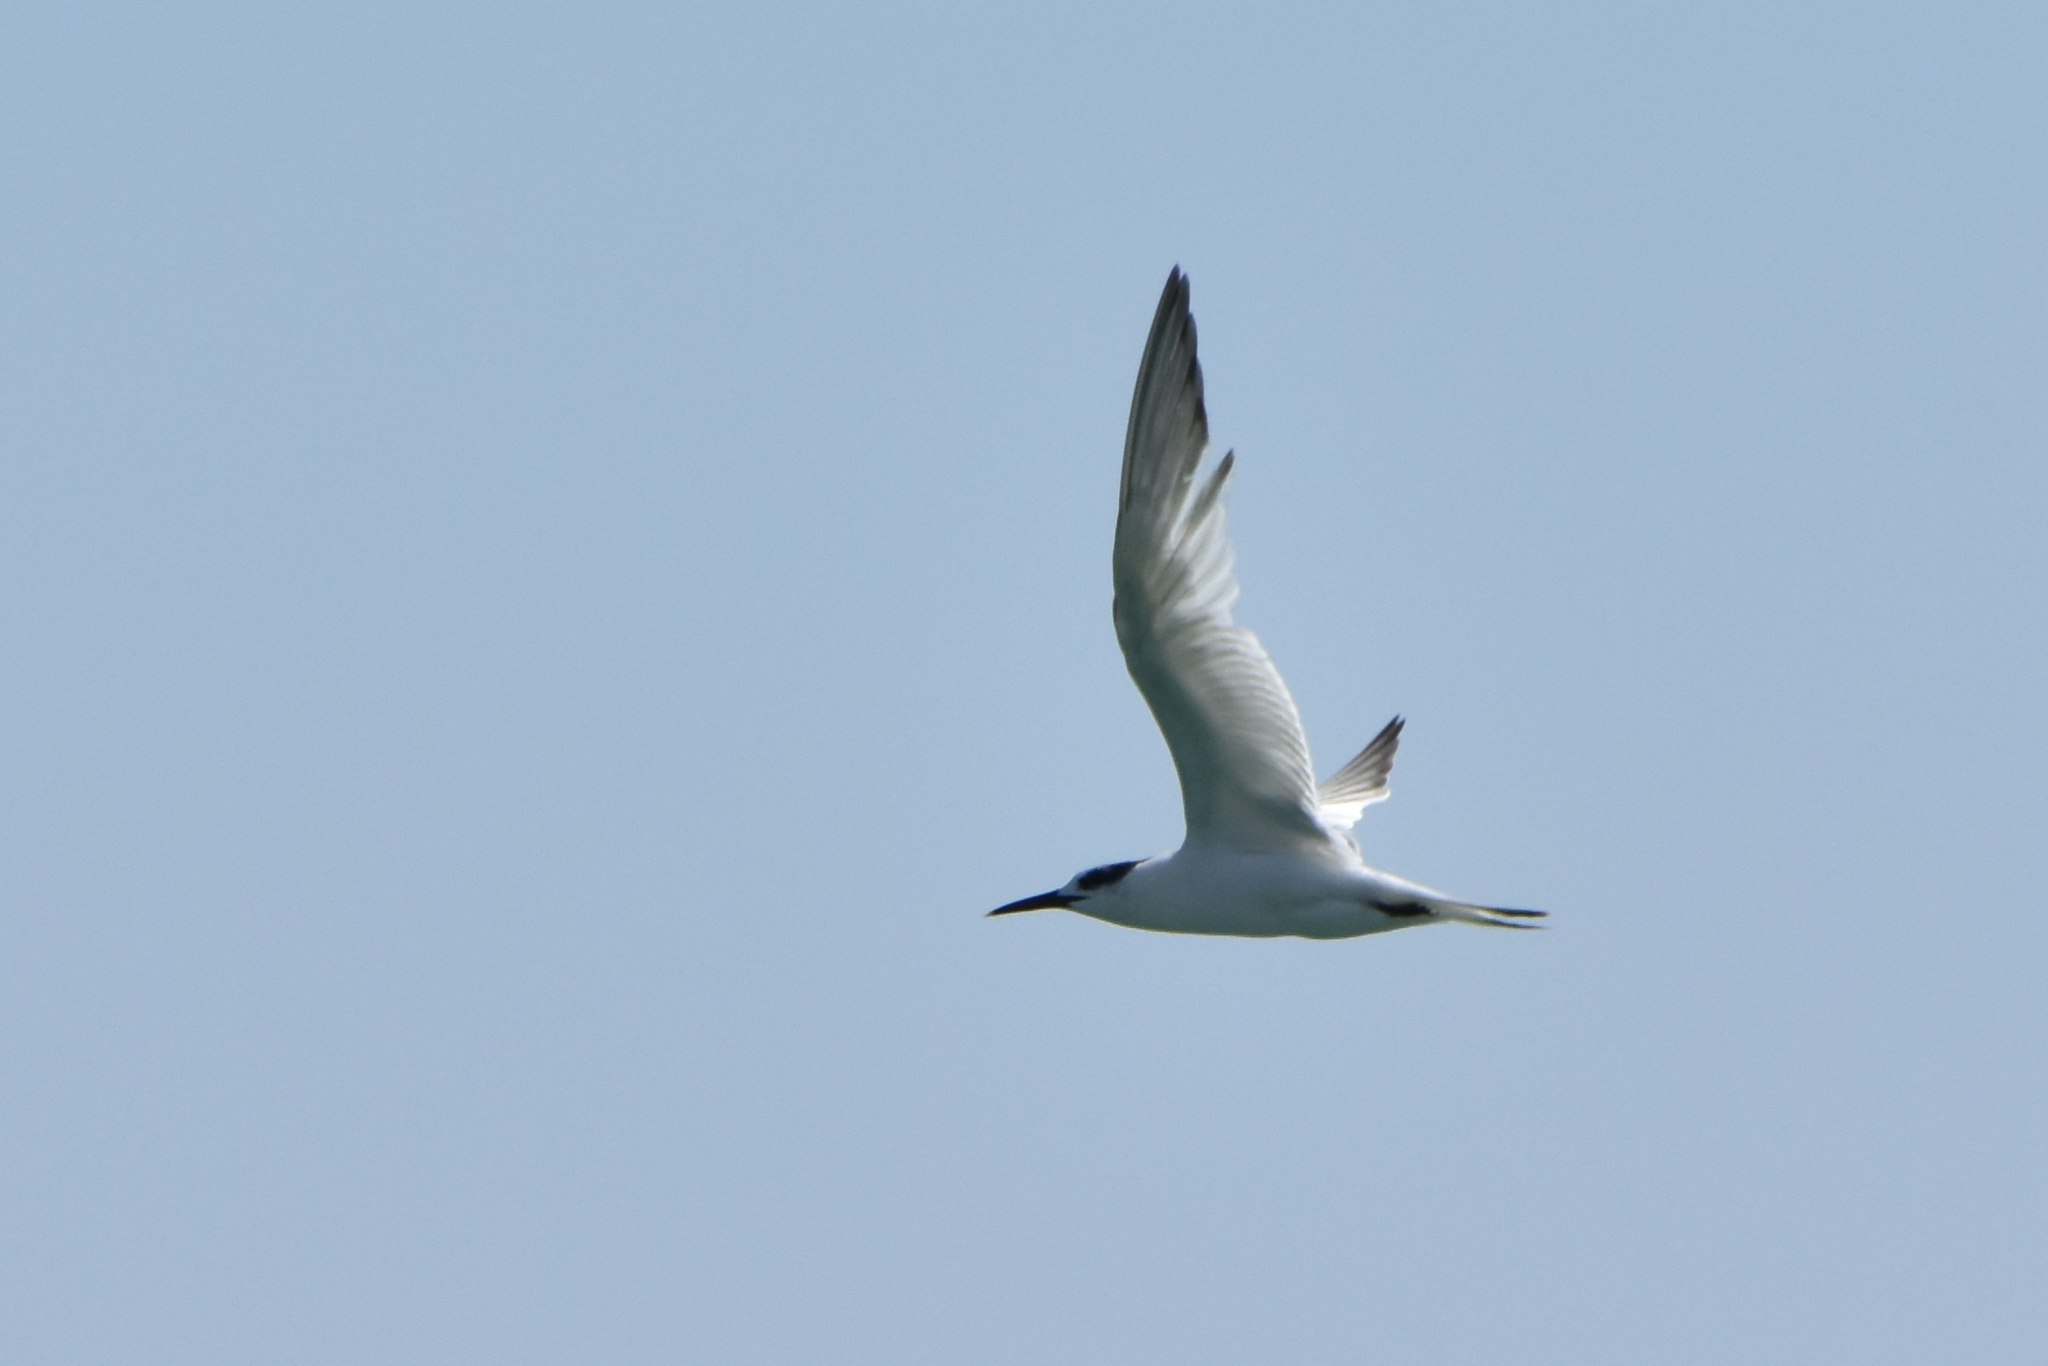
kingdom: Animalia
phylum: Chordata
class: Aves
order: Charadriiformes
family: Laridae
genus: Thalasseus
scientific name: Thalasseus sandvicensis
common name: Sandwich tern
